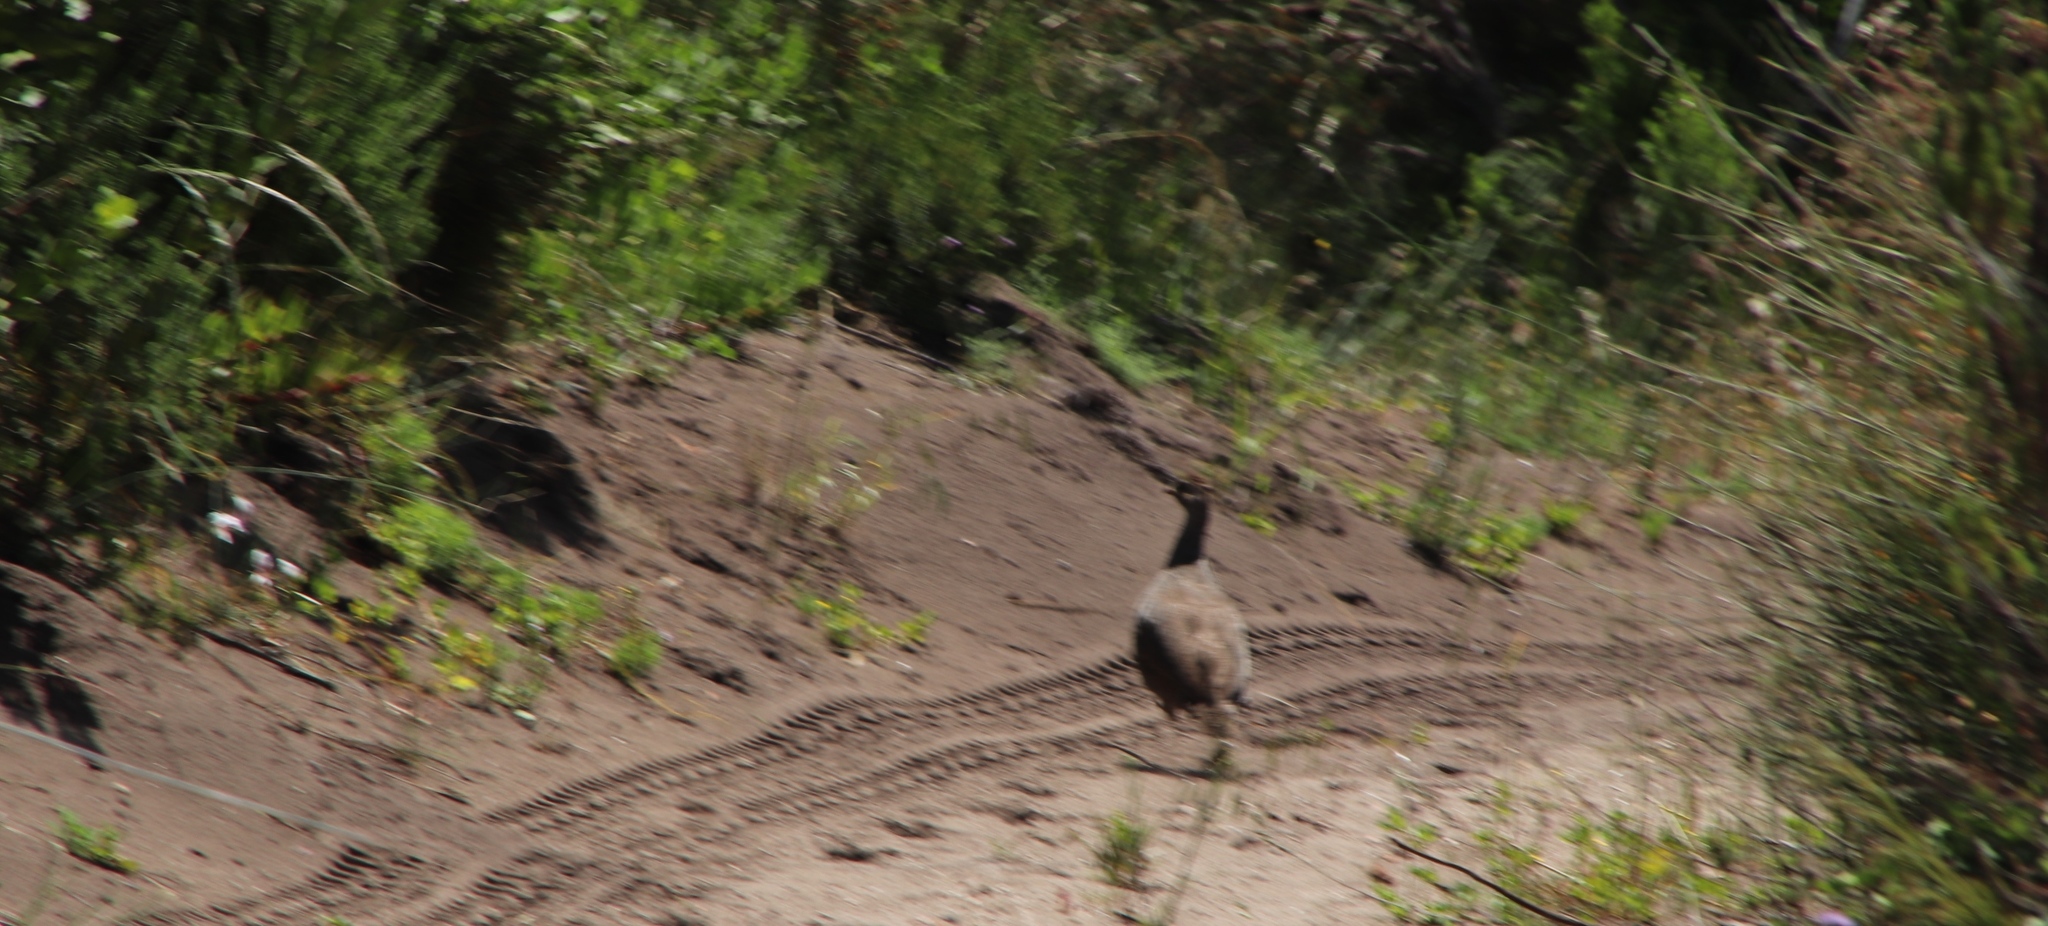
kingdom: Animalia
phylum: Chordata
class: Aves
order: Galliformes
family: Phasianidae
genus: Pternistis
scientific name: Pternistis capensis
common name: Cape spurfowl
